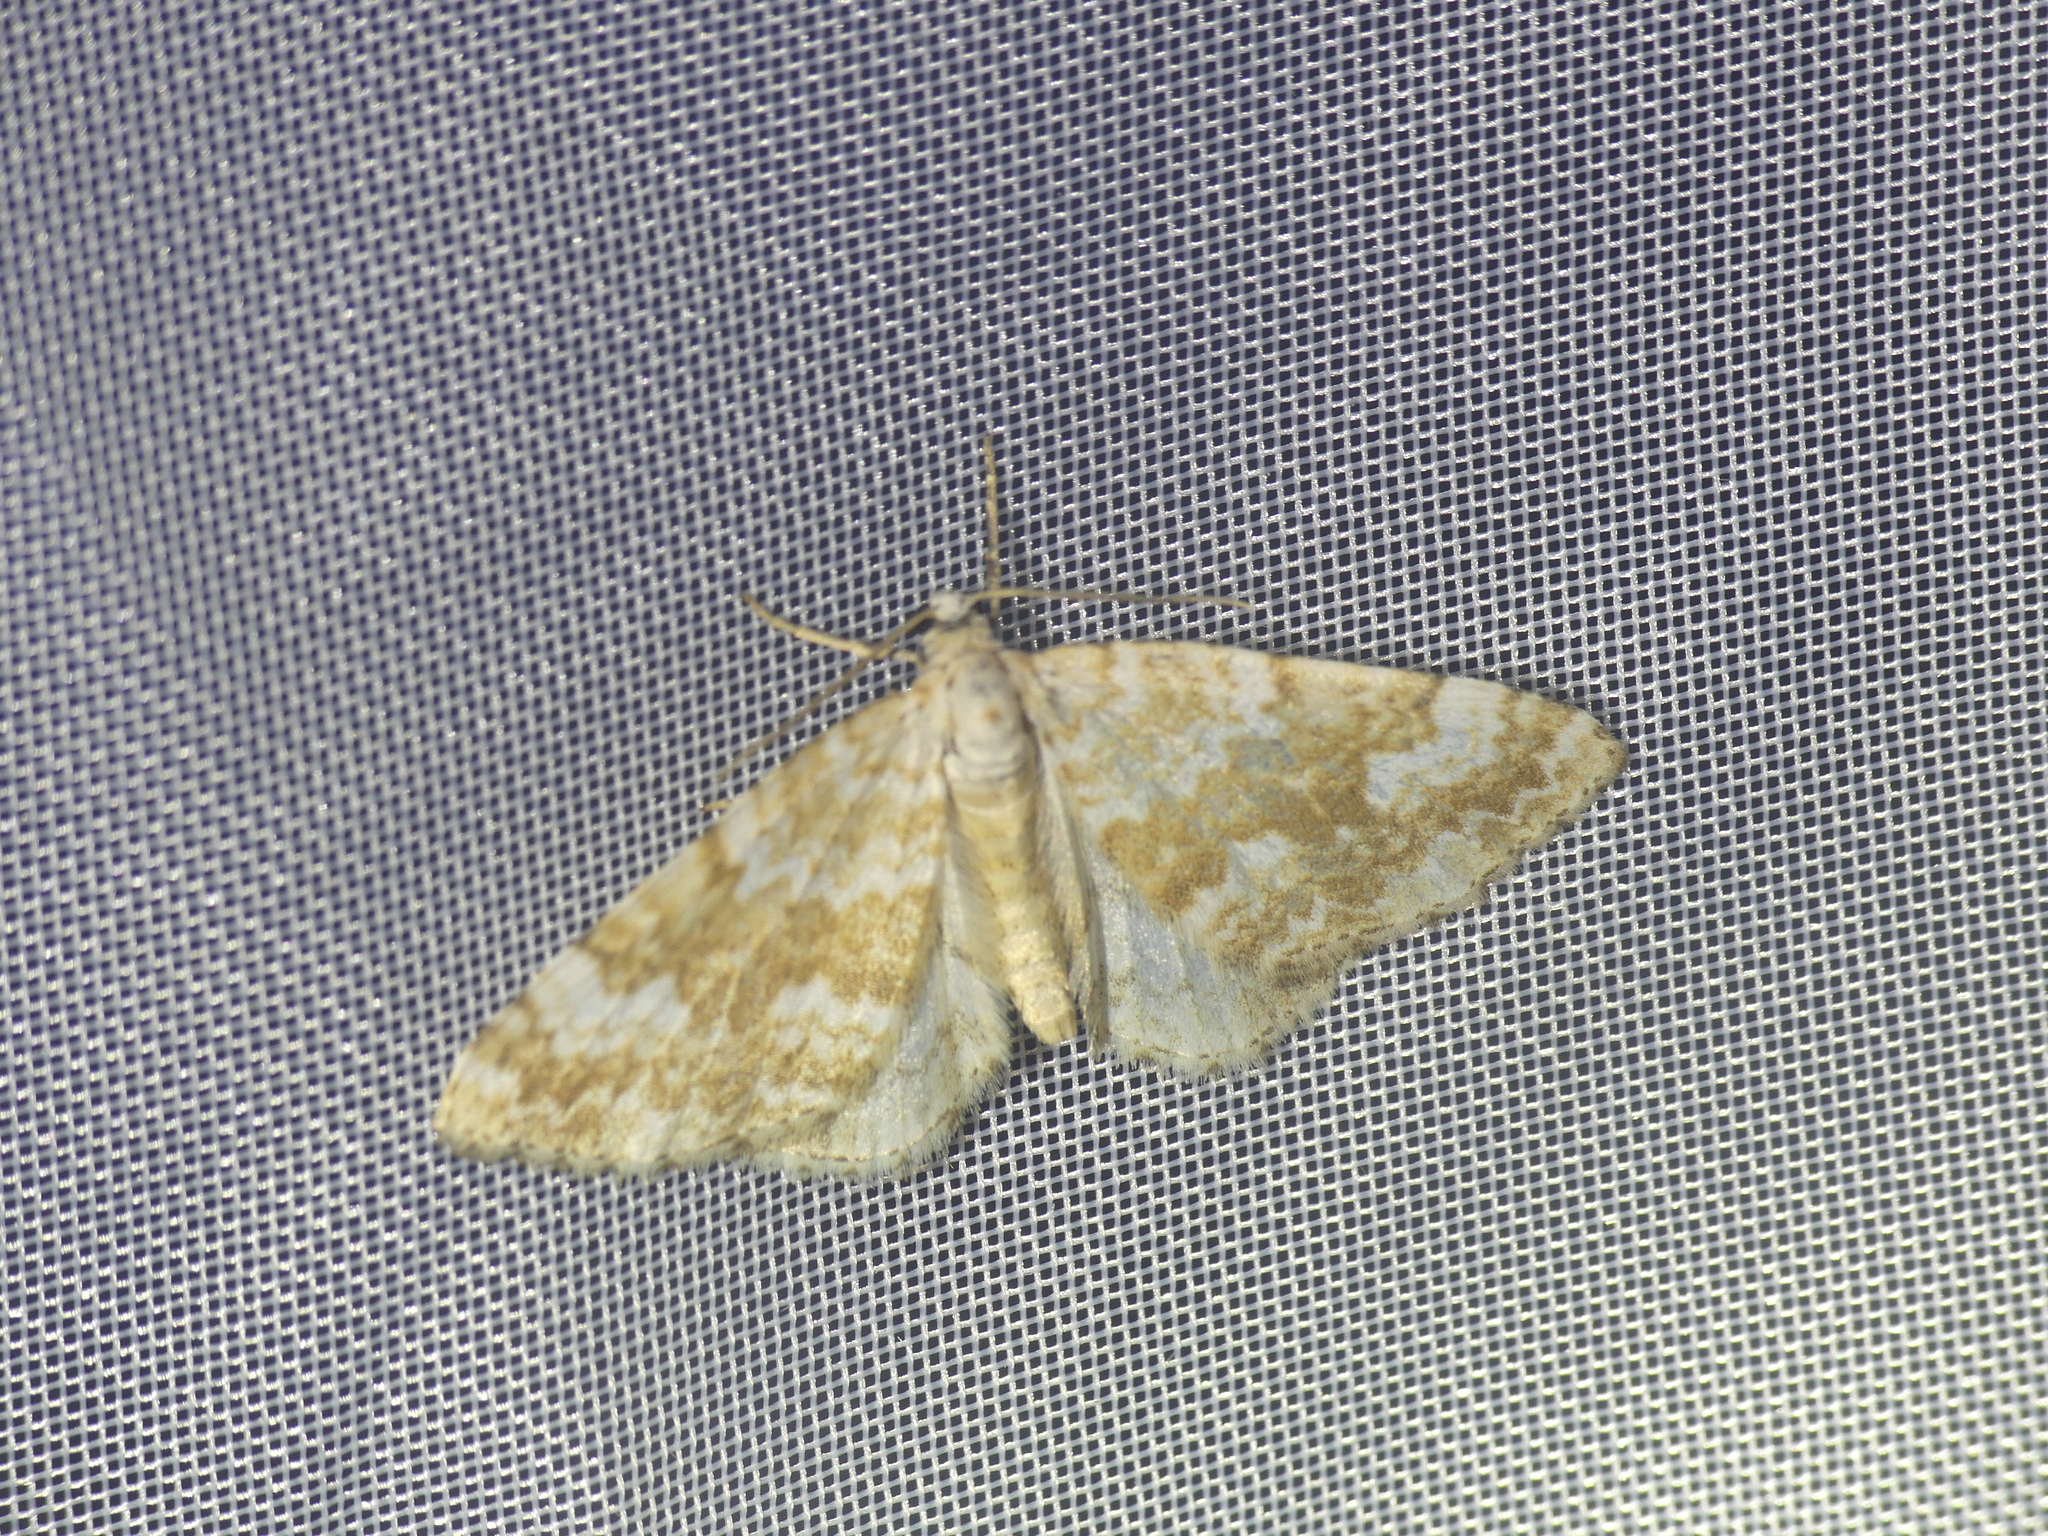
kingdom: Animalia
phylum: Arthropoda
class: Insecta
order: Lepidoptera
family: Geometridae
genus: Perizoma
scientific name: Perizoma flavofasciata
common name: Sandy carpet
